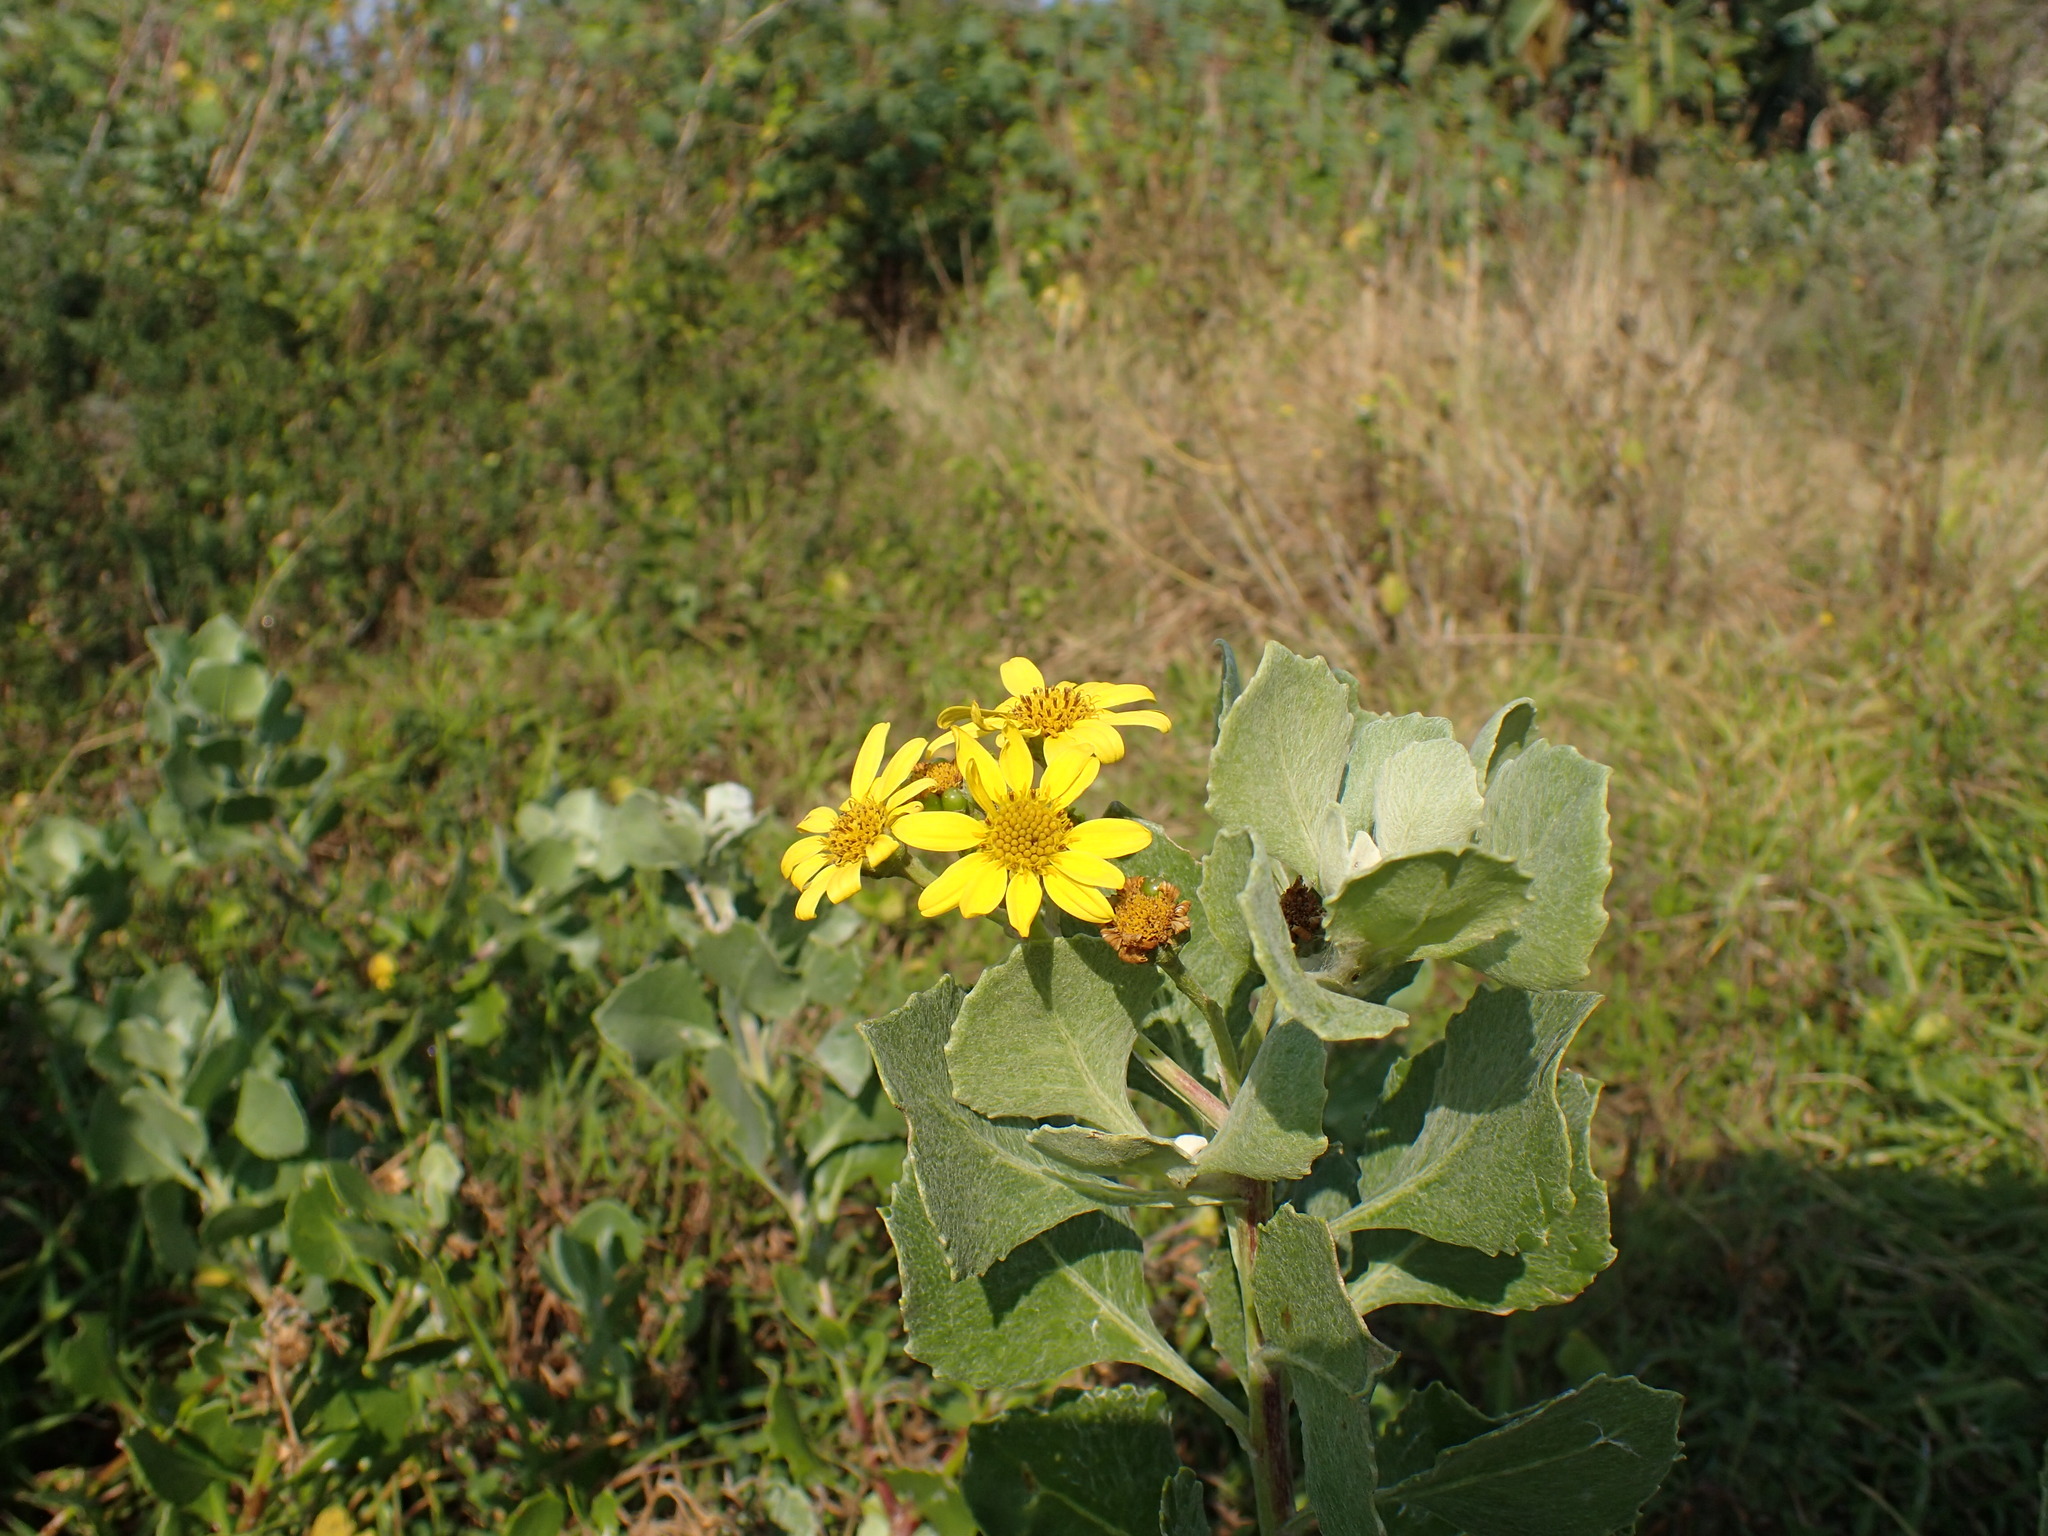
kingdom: Plantae
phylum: Tracheophyta
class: Magnoliopsida
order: Asterales
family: Asteraceae
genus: Osteospermum
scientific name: Osteospermum moniliferum
